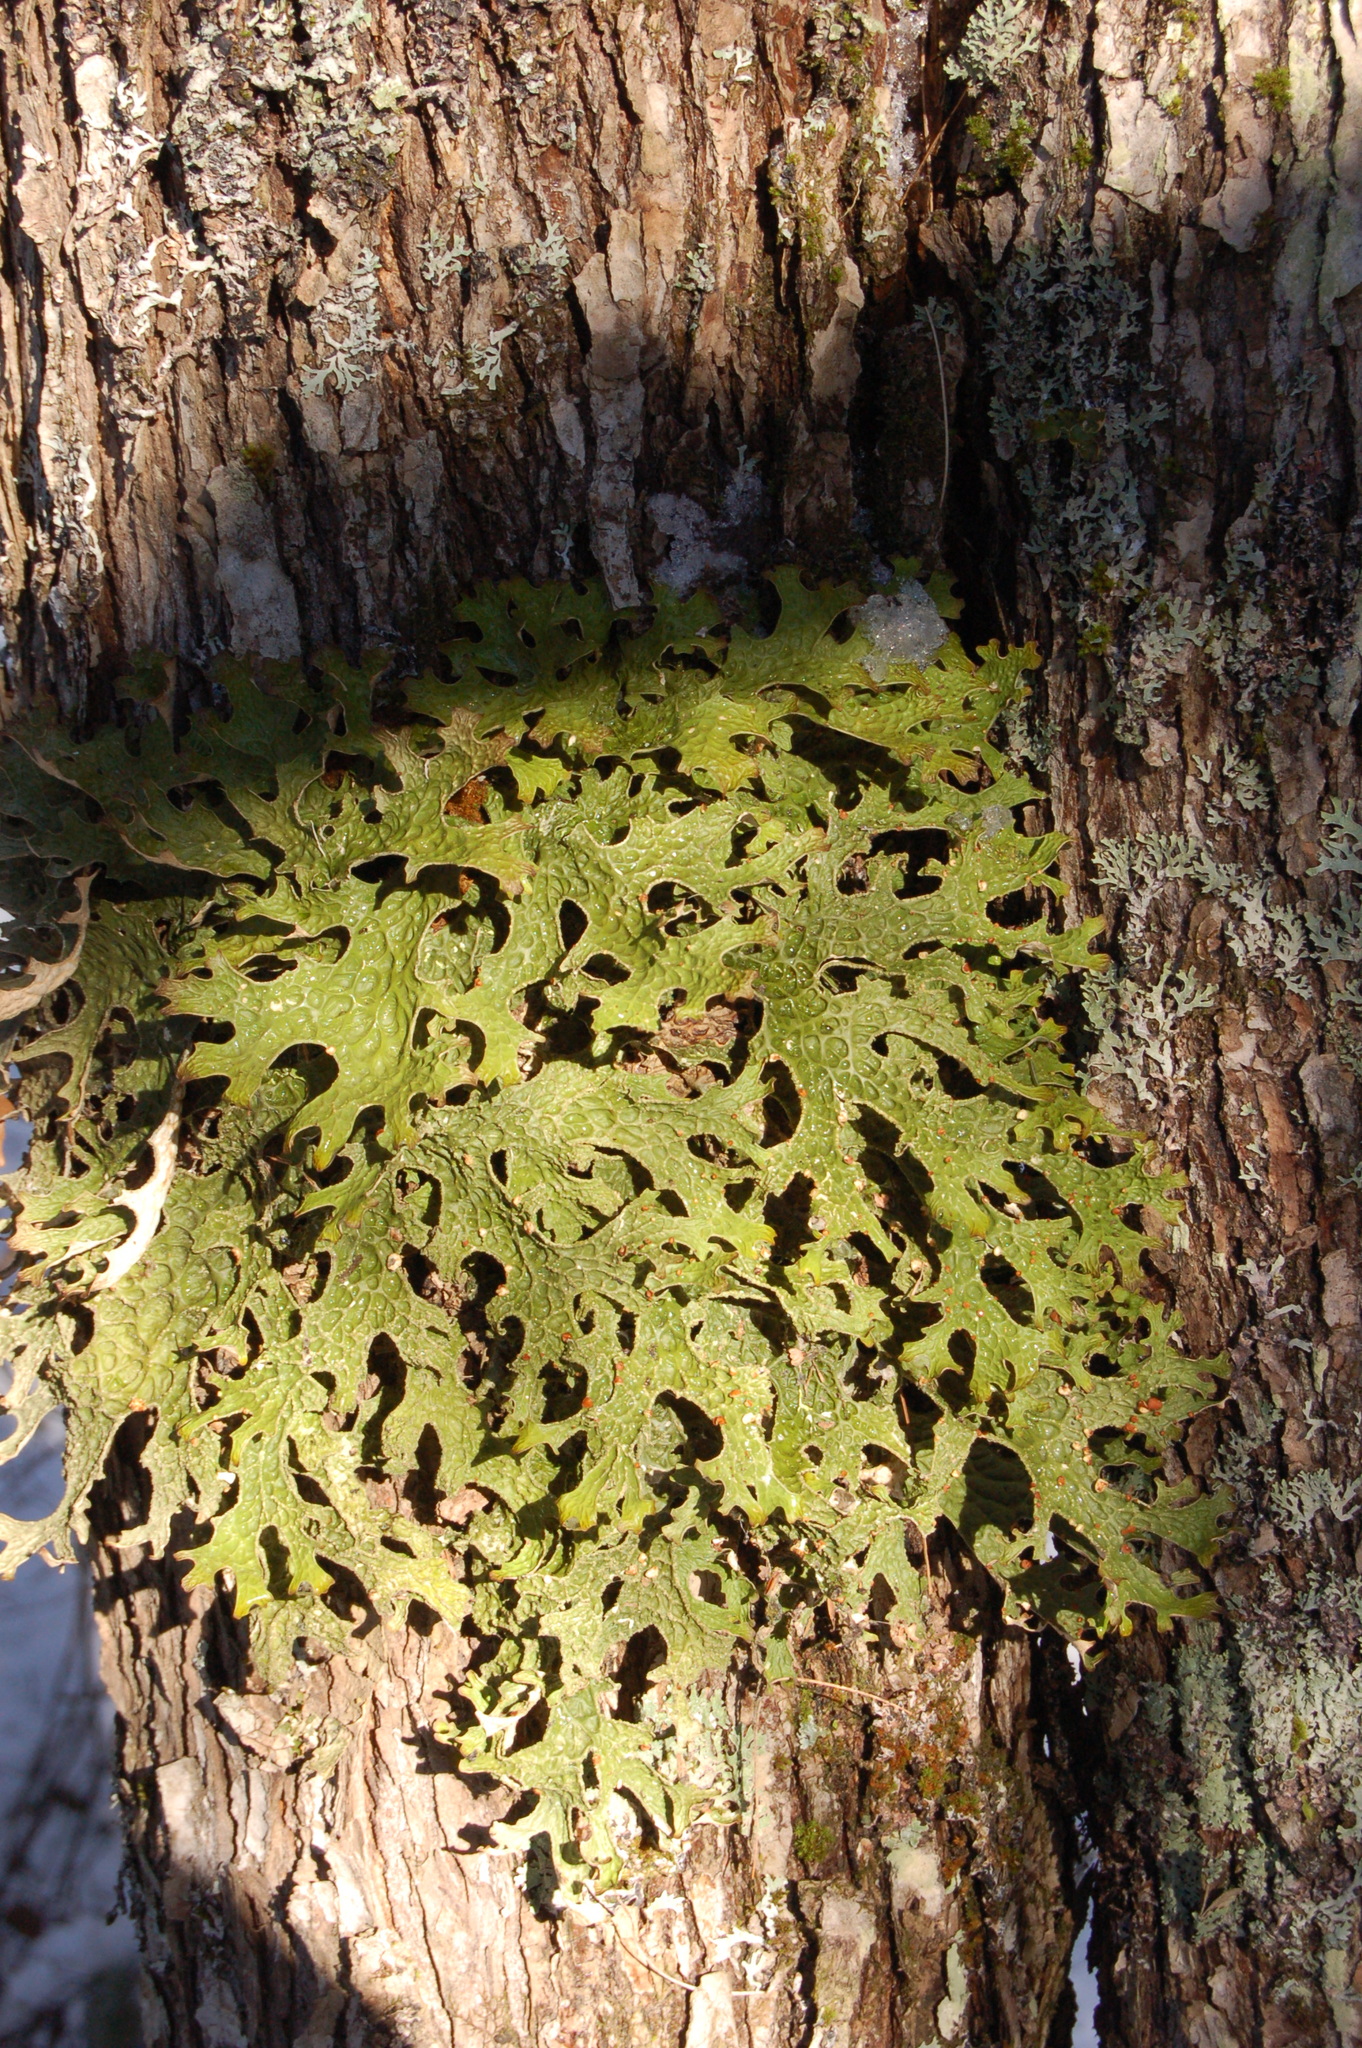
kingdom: Fungi
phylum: Ascomycota
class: Lecanoromycetes
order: Peltigerales
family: Lobariaceae
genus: Lobaria
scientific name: Lobaria pulmonaria
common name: Lungwort
